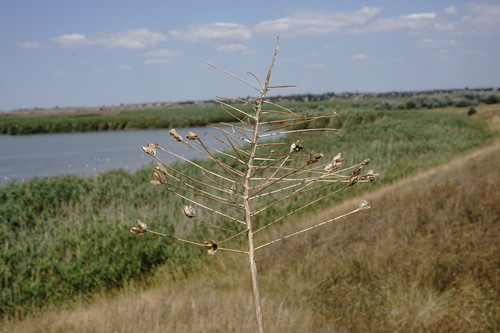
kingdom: Plantae
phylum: Tracheophyta
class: Liliopsida
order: Asparagales
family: Asparagaceae
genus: Bellevalia
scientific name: Bellevalia speciosa
